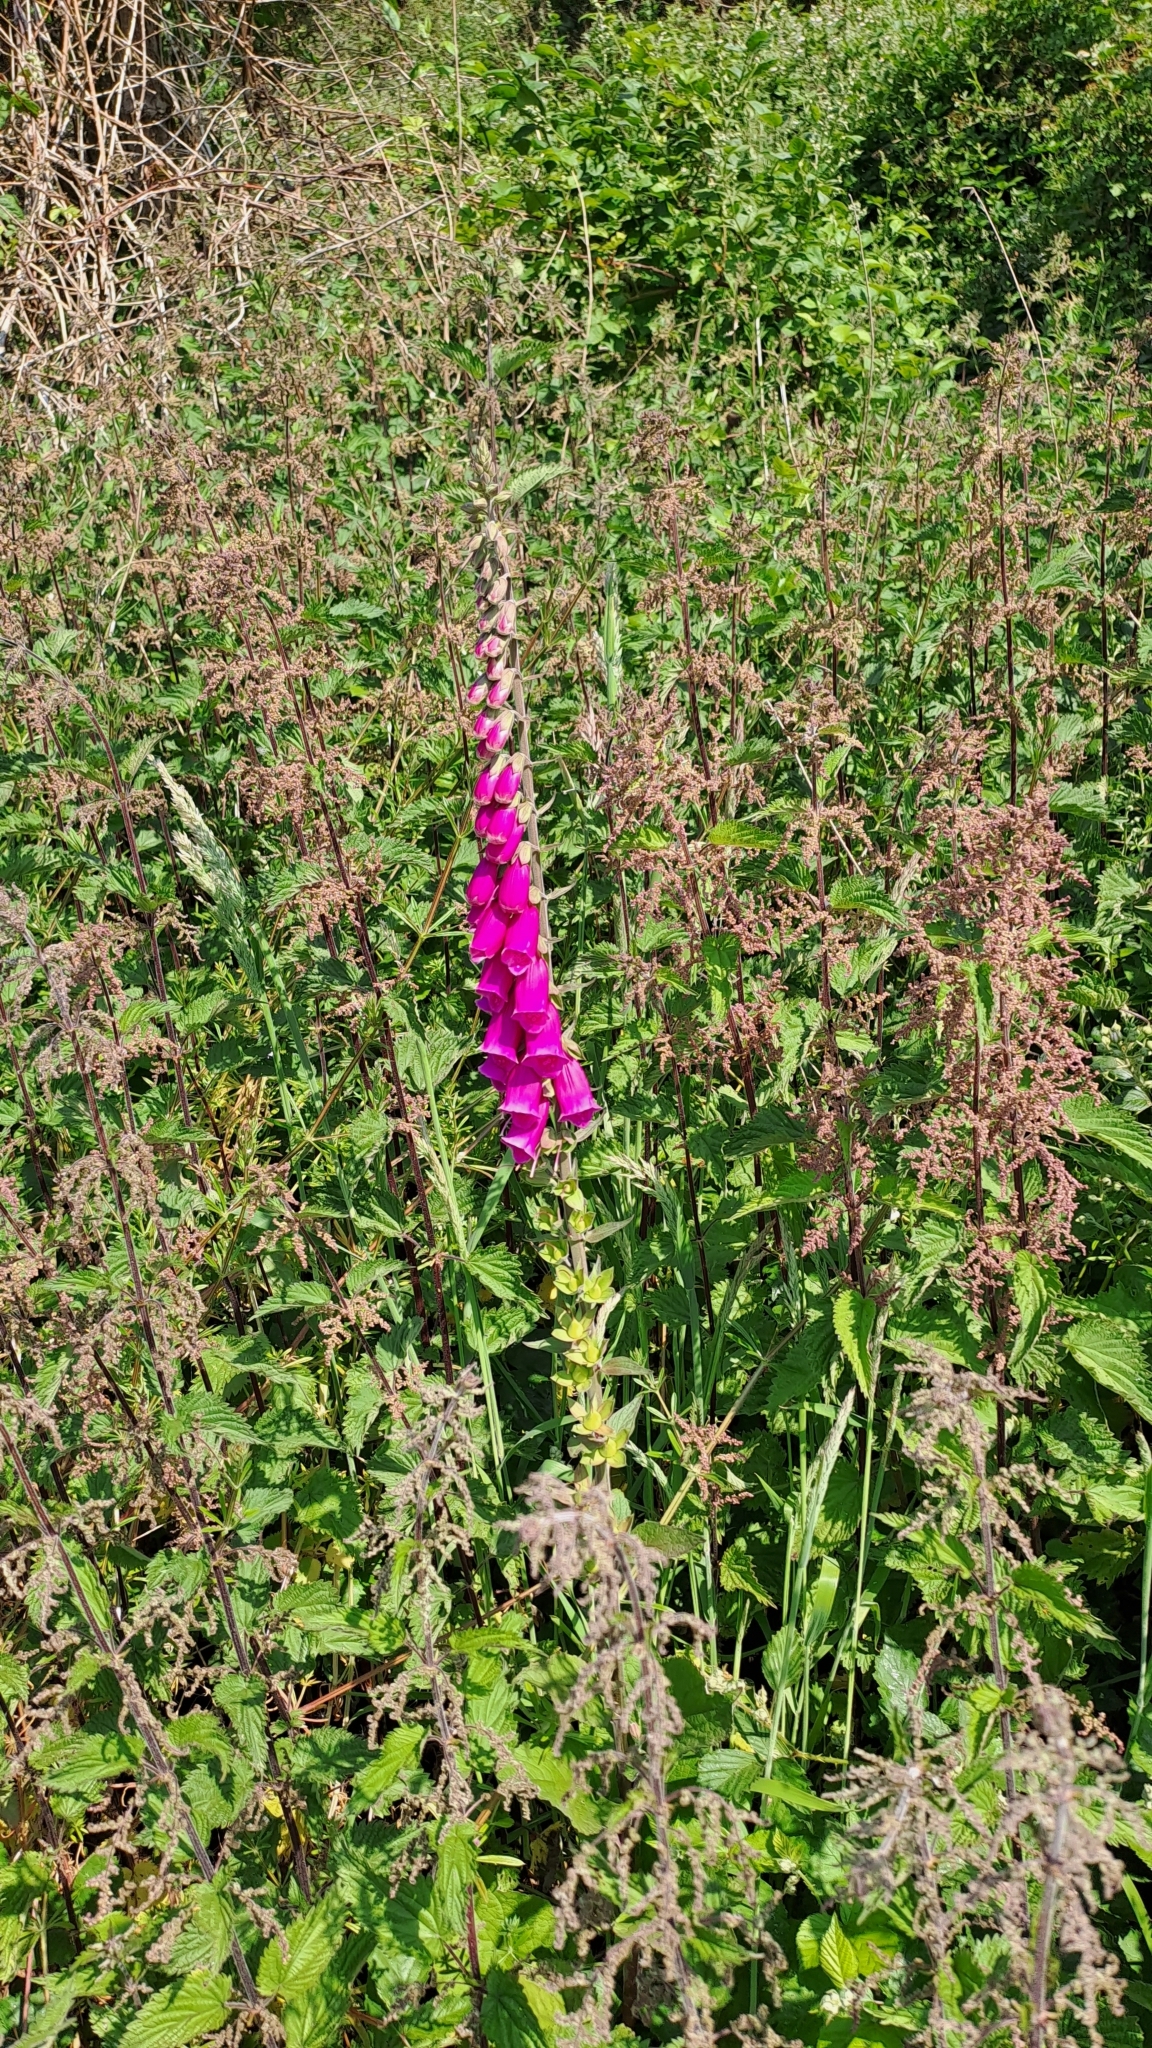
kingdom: Plantae
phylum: Tracheophyta
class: Magnoliopsida
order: Lamiales
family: Plantaginaceae
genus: Digitalis
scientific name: Digitalis purpurea
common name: Foxglove
